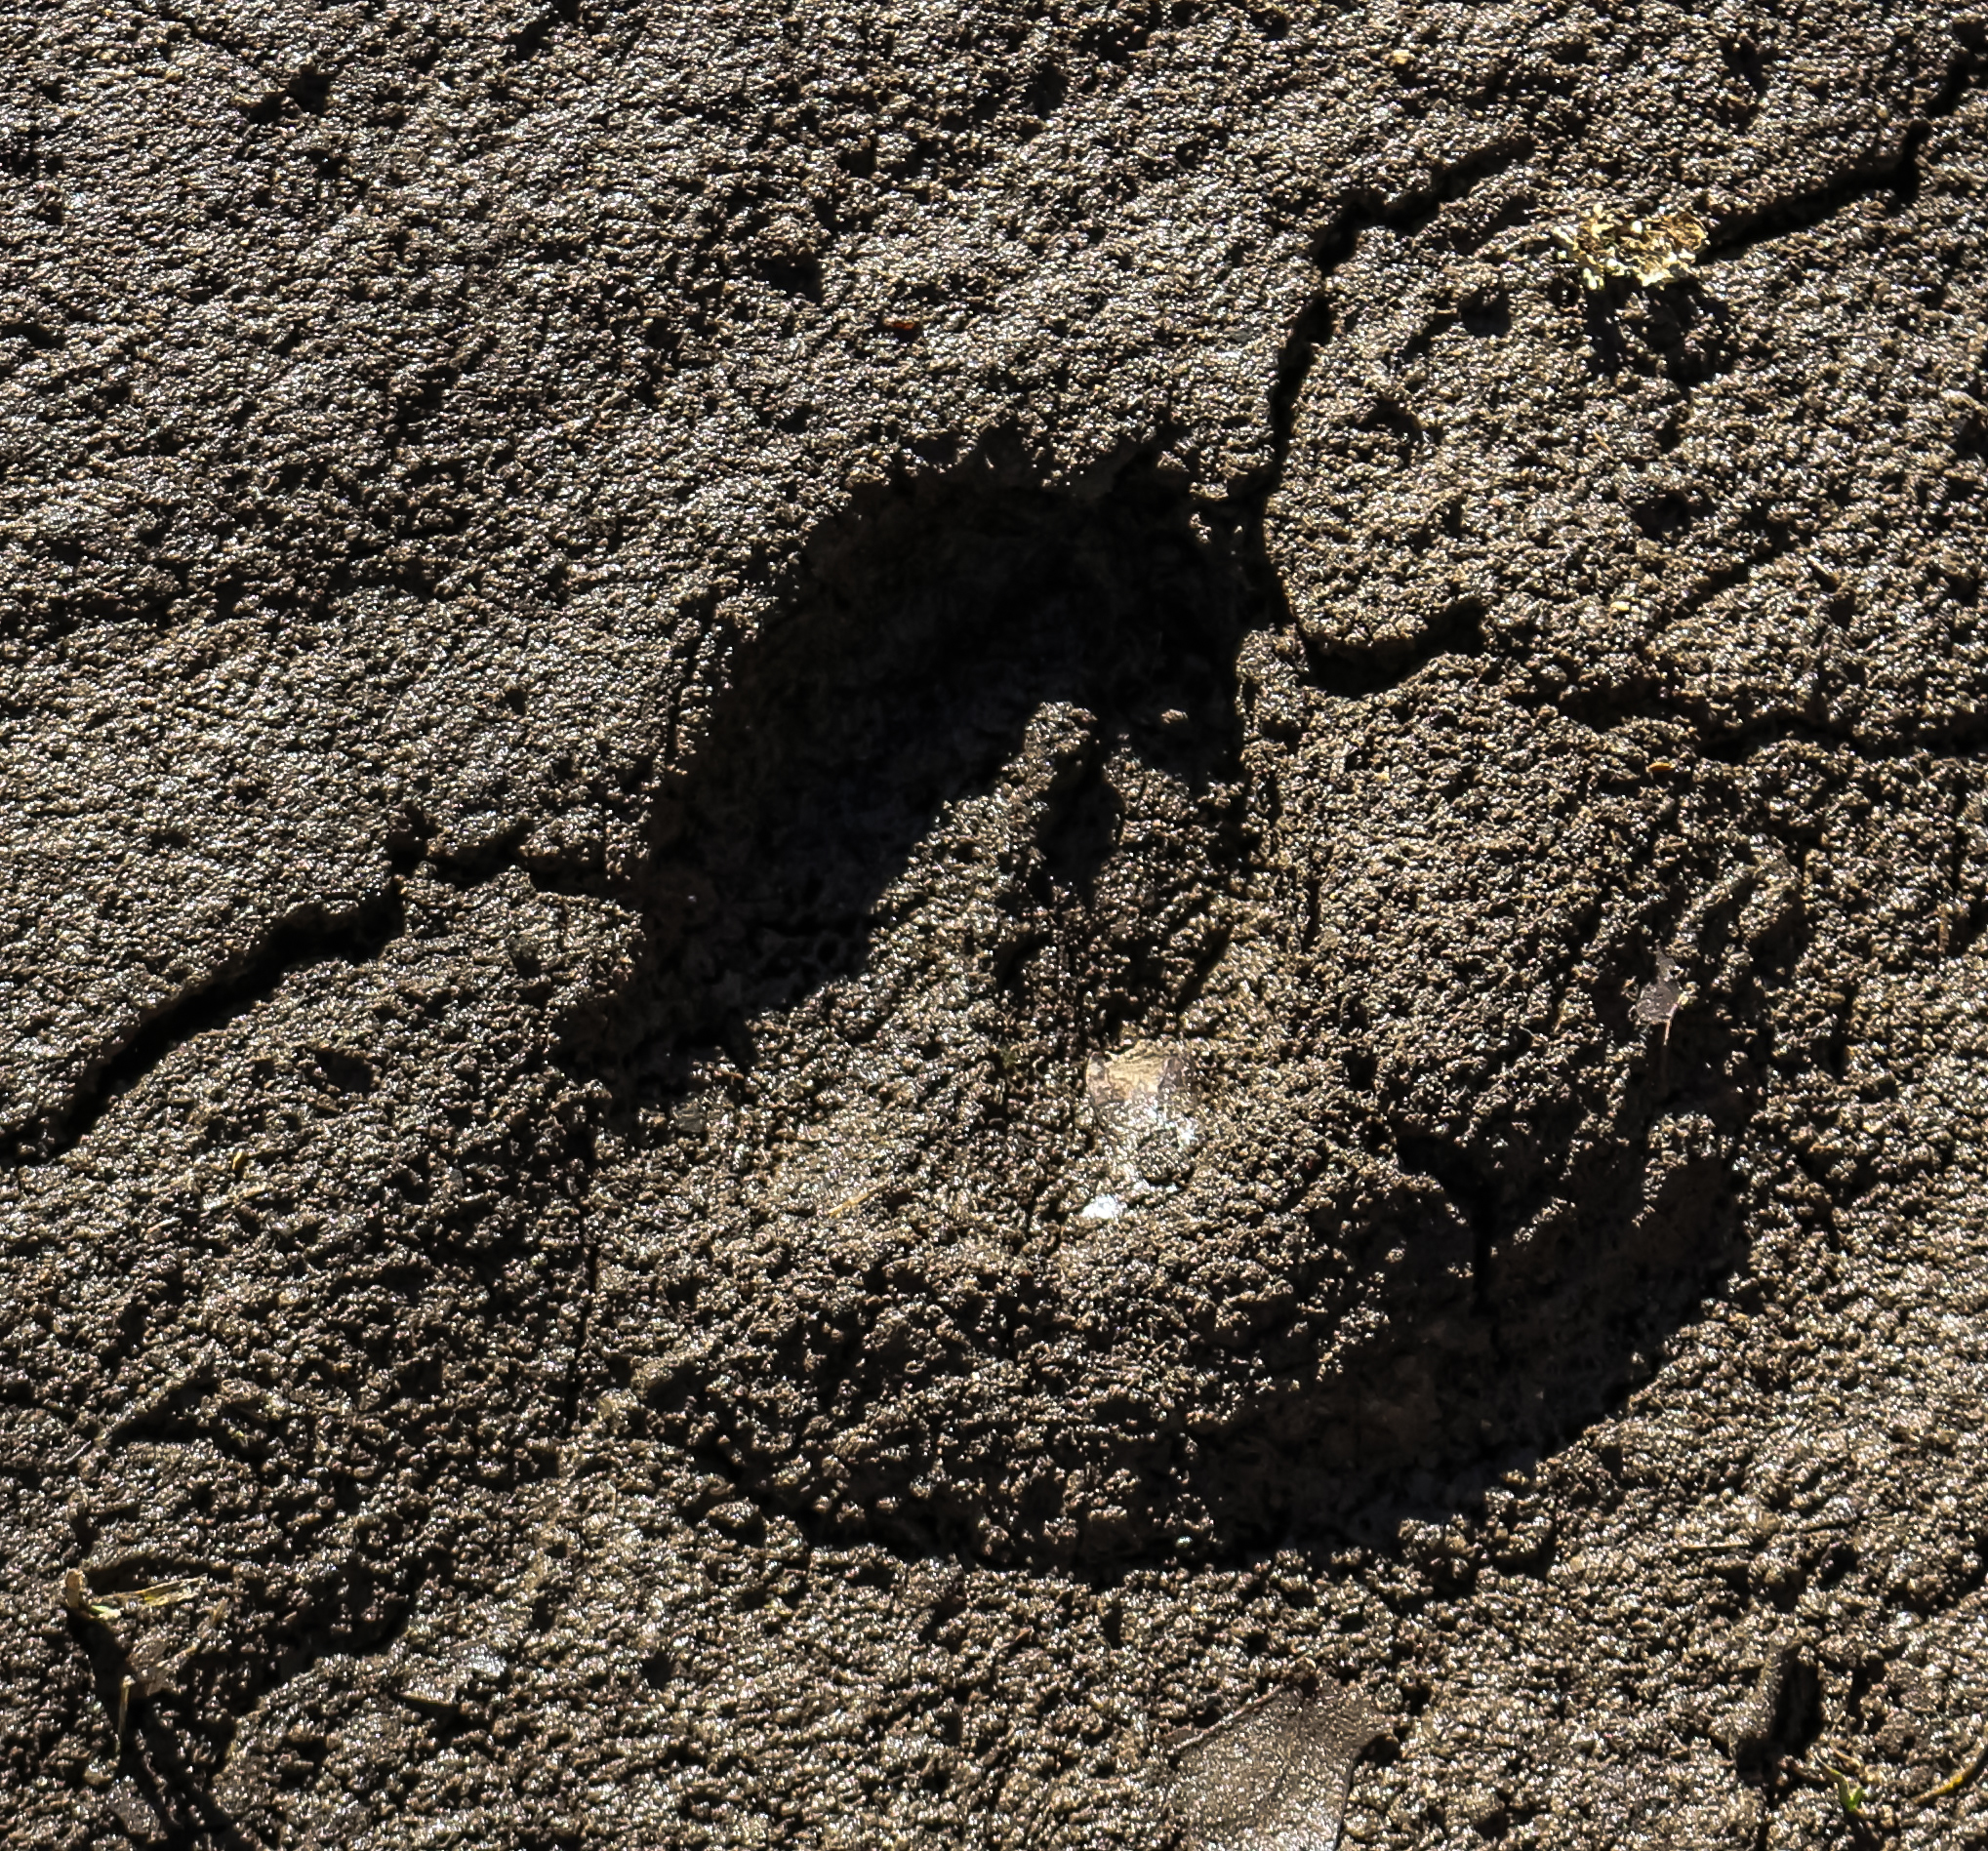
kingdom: Animalia
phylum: Chordata
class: Mammalia
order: Artiodactyla
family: Cervidae
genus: Odocoileus
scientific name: Odocoileus virginianus
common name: White-tailed deer
